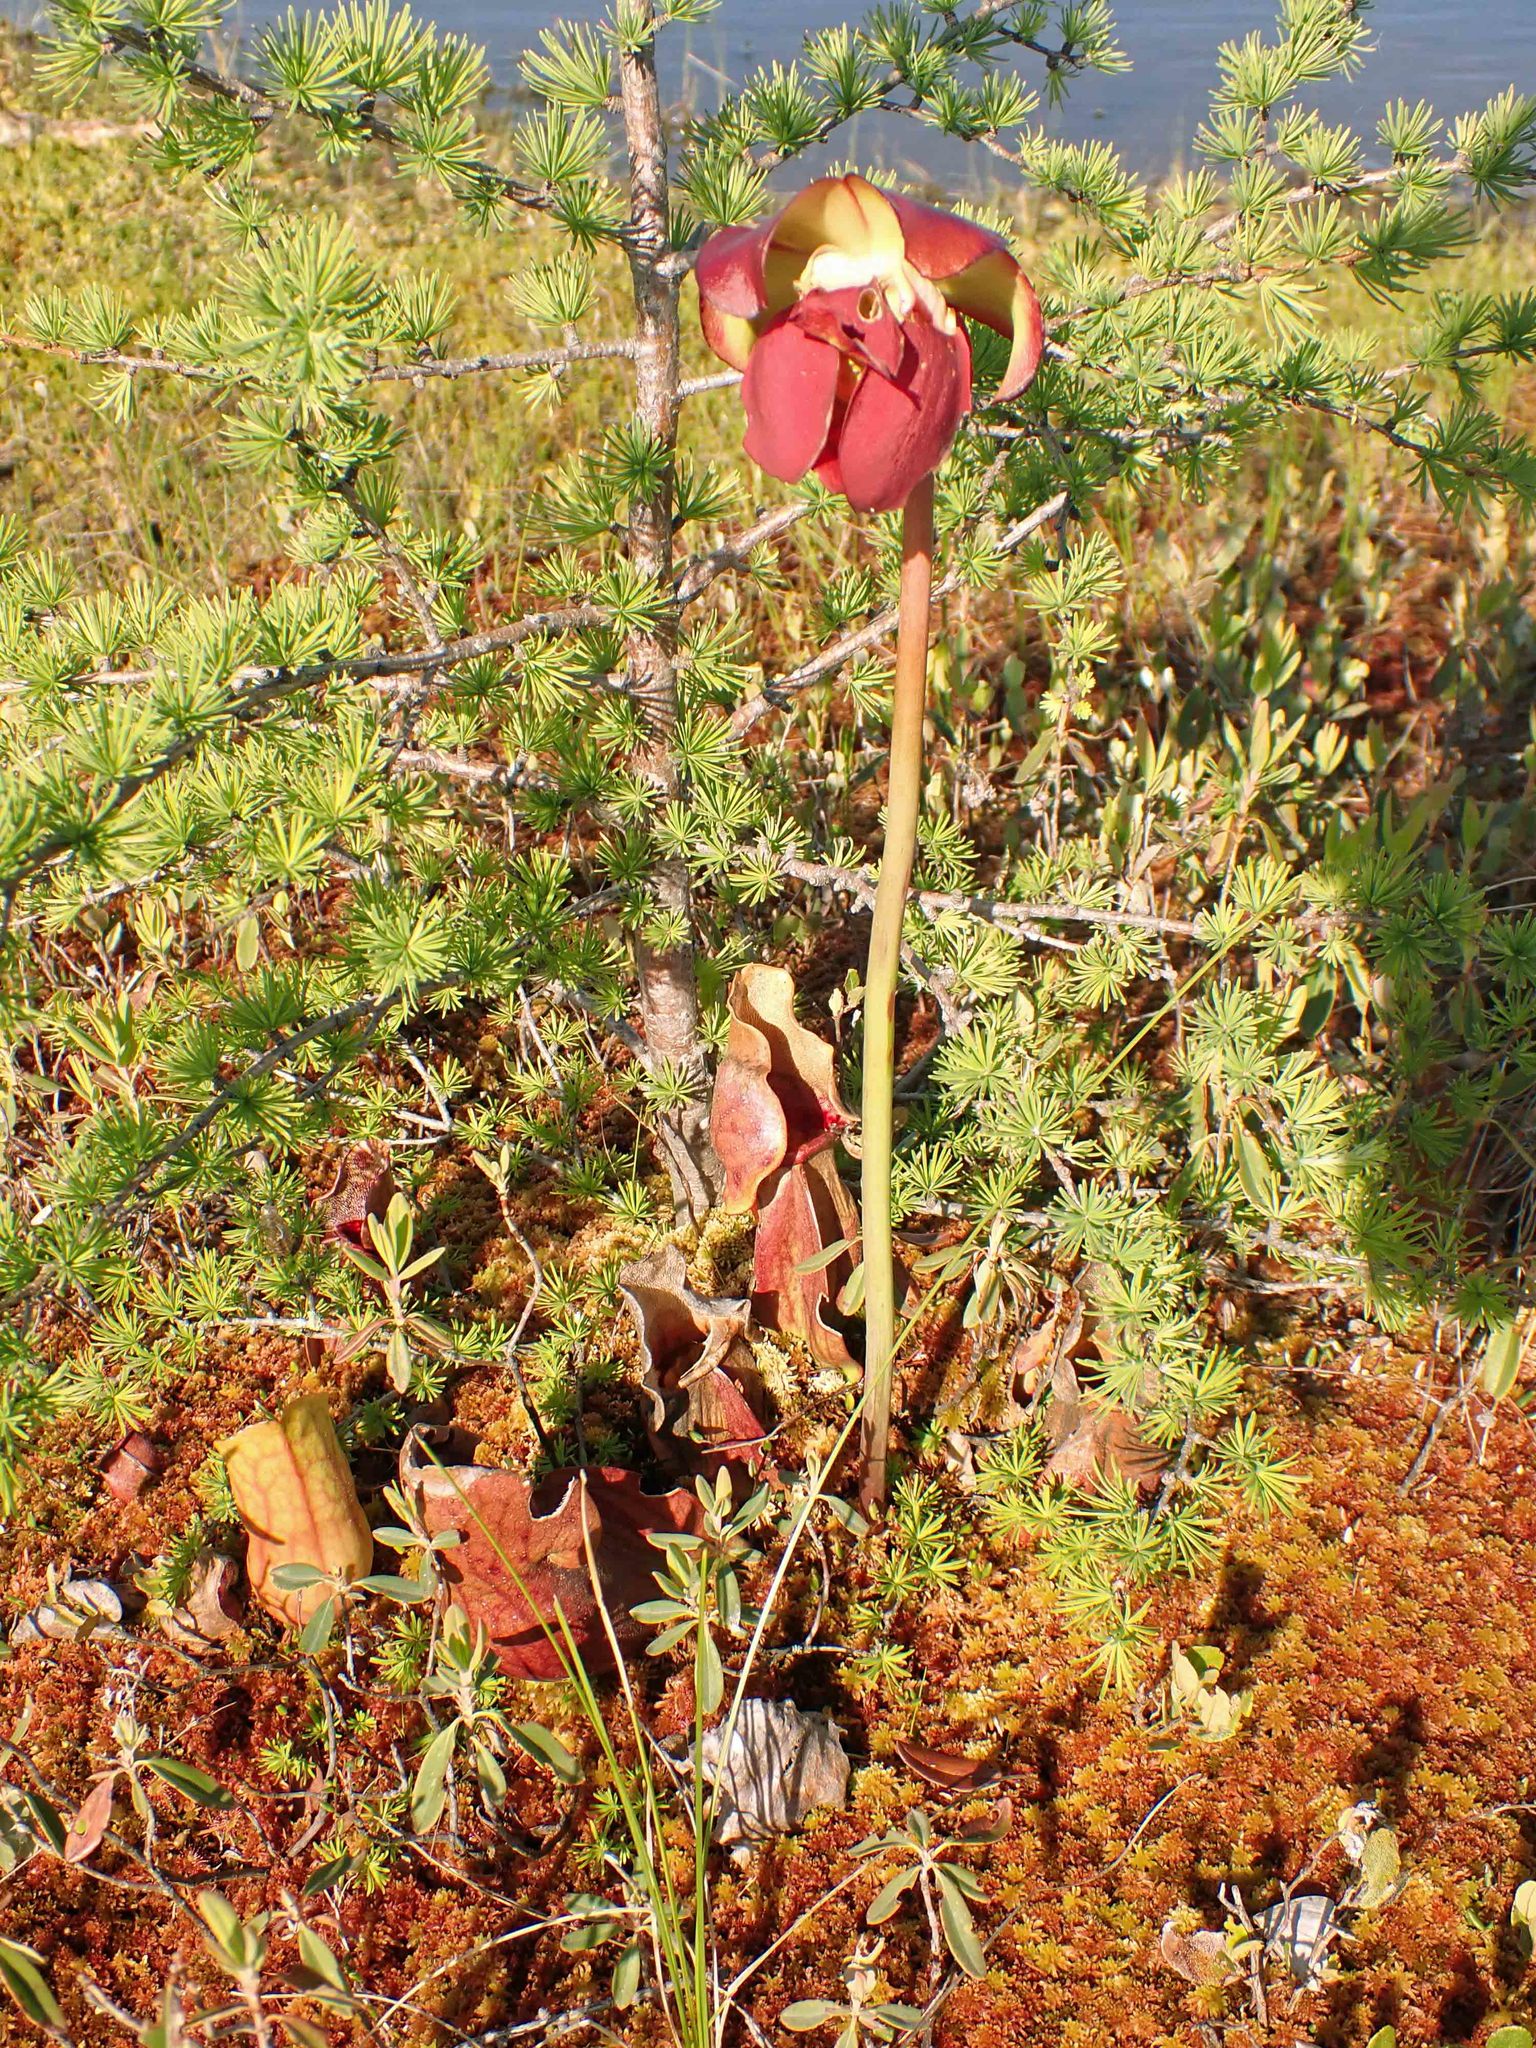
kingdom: Plantae
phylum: Tracheophyta
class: Magnoliopsida
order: Ericales
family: Sarraceniaceae
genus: Sarracenia
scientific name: Sarracenia purpurea
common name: Pitcherplant
